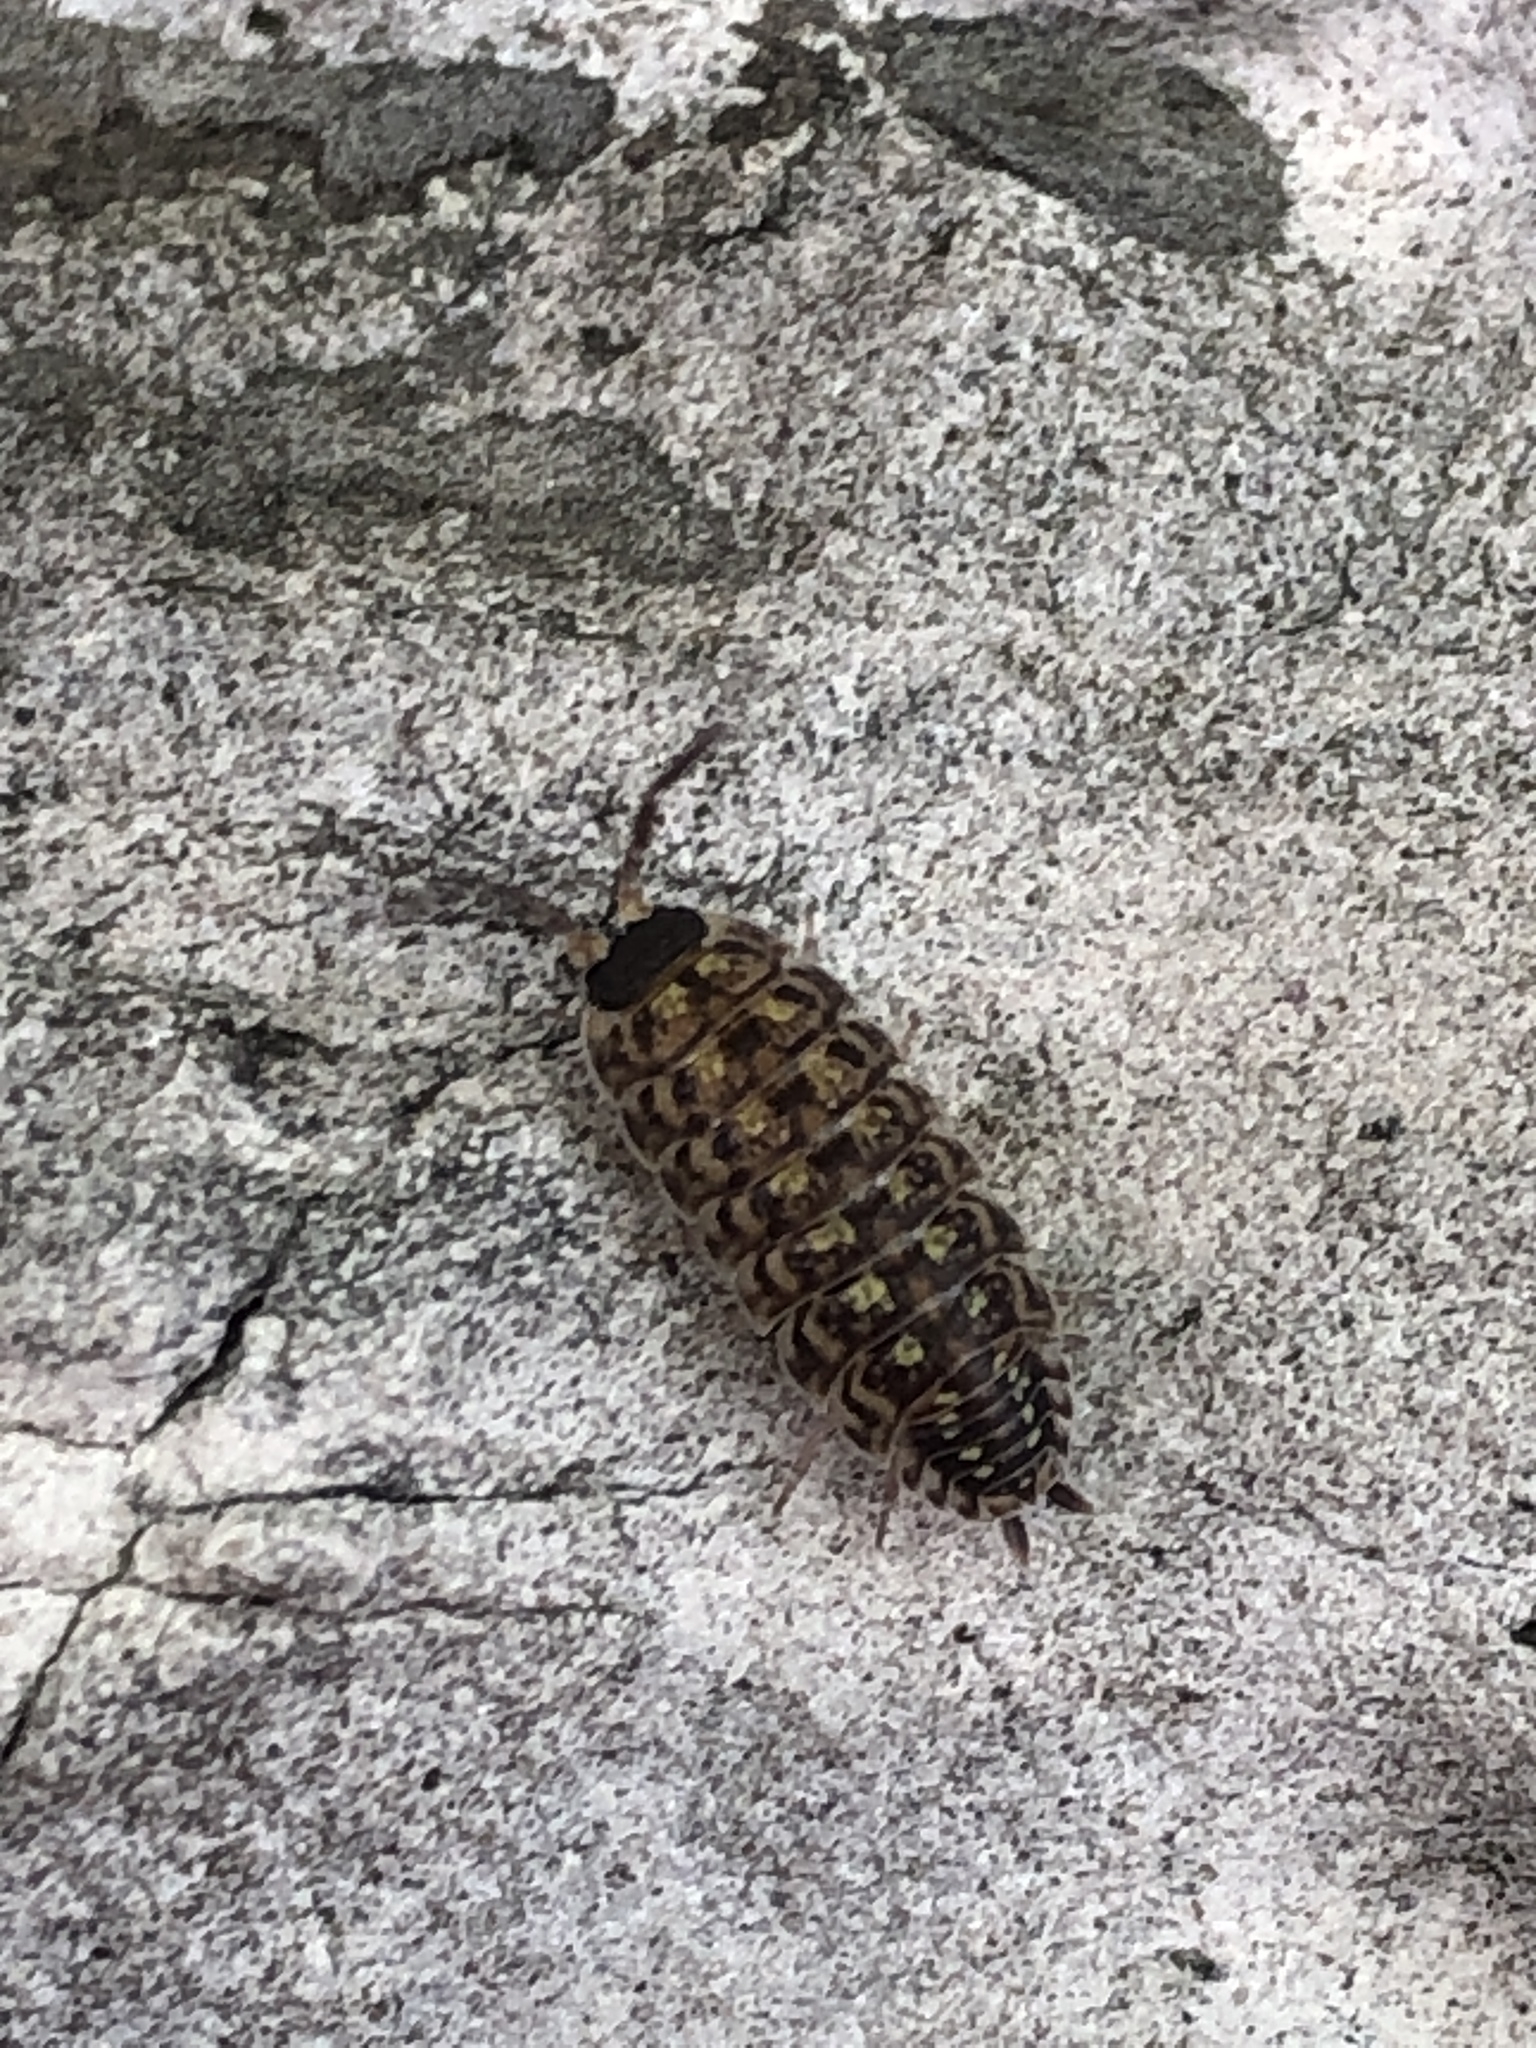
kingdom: Animalia
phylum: Arthropoda
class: Malacostraca
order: Isopoda
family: Porcellionidae
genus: Porcellio
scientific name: Porcellio spinicornis
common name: Painted woodlouse
